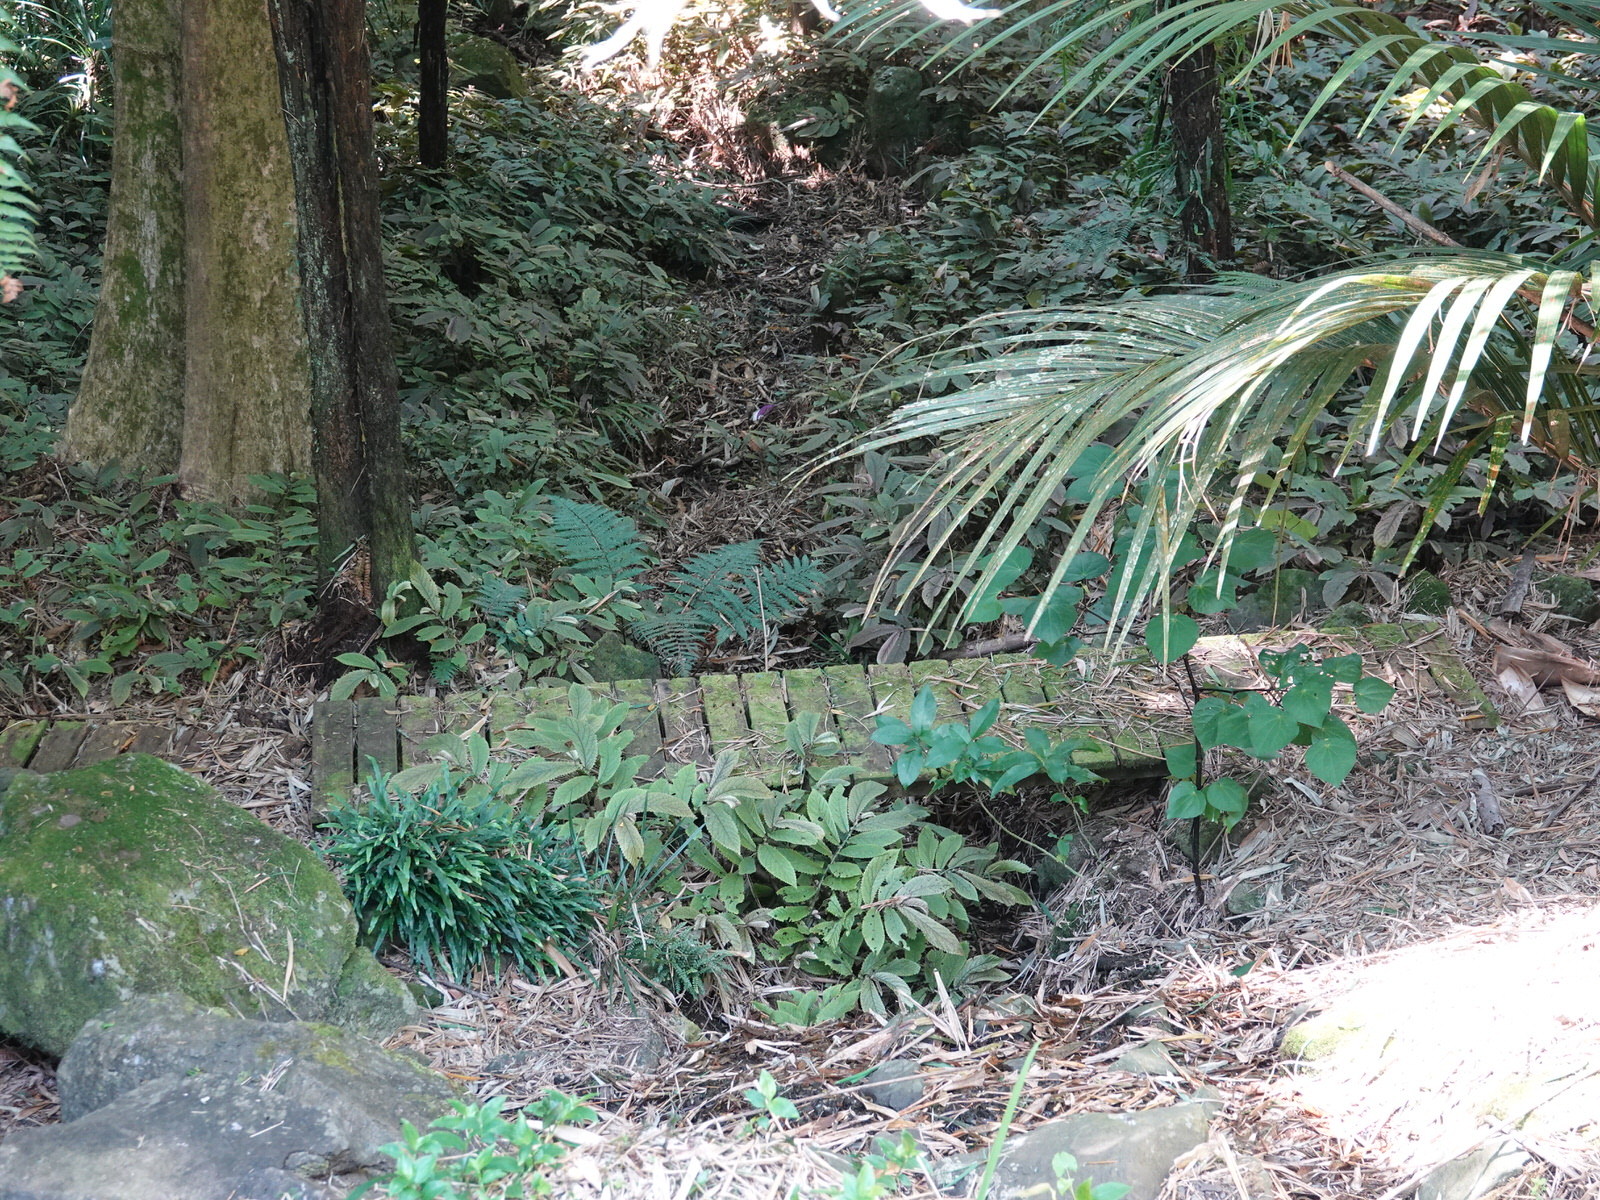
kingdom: Plantae
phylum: Tracheophyta
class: Magnoliopsida
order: Rosales
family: Urticaceae
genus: Elatostema
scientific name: Elatostema rugosum
